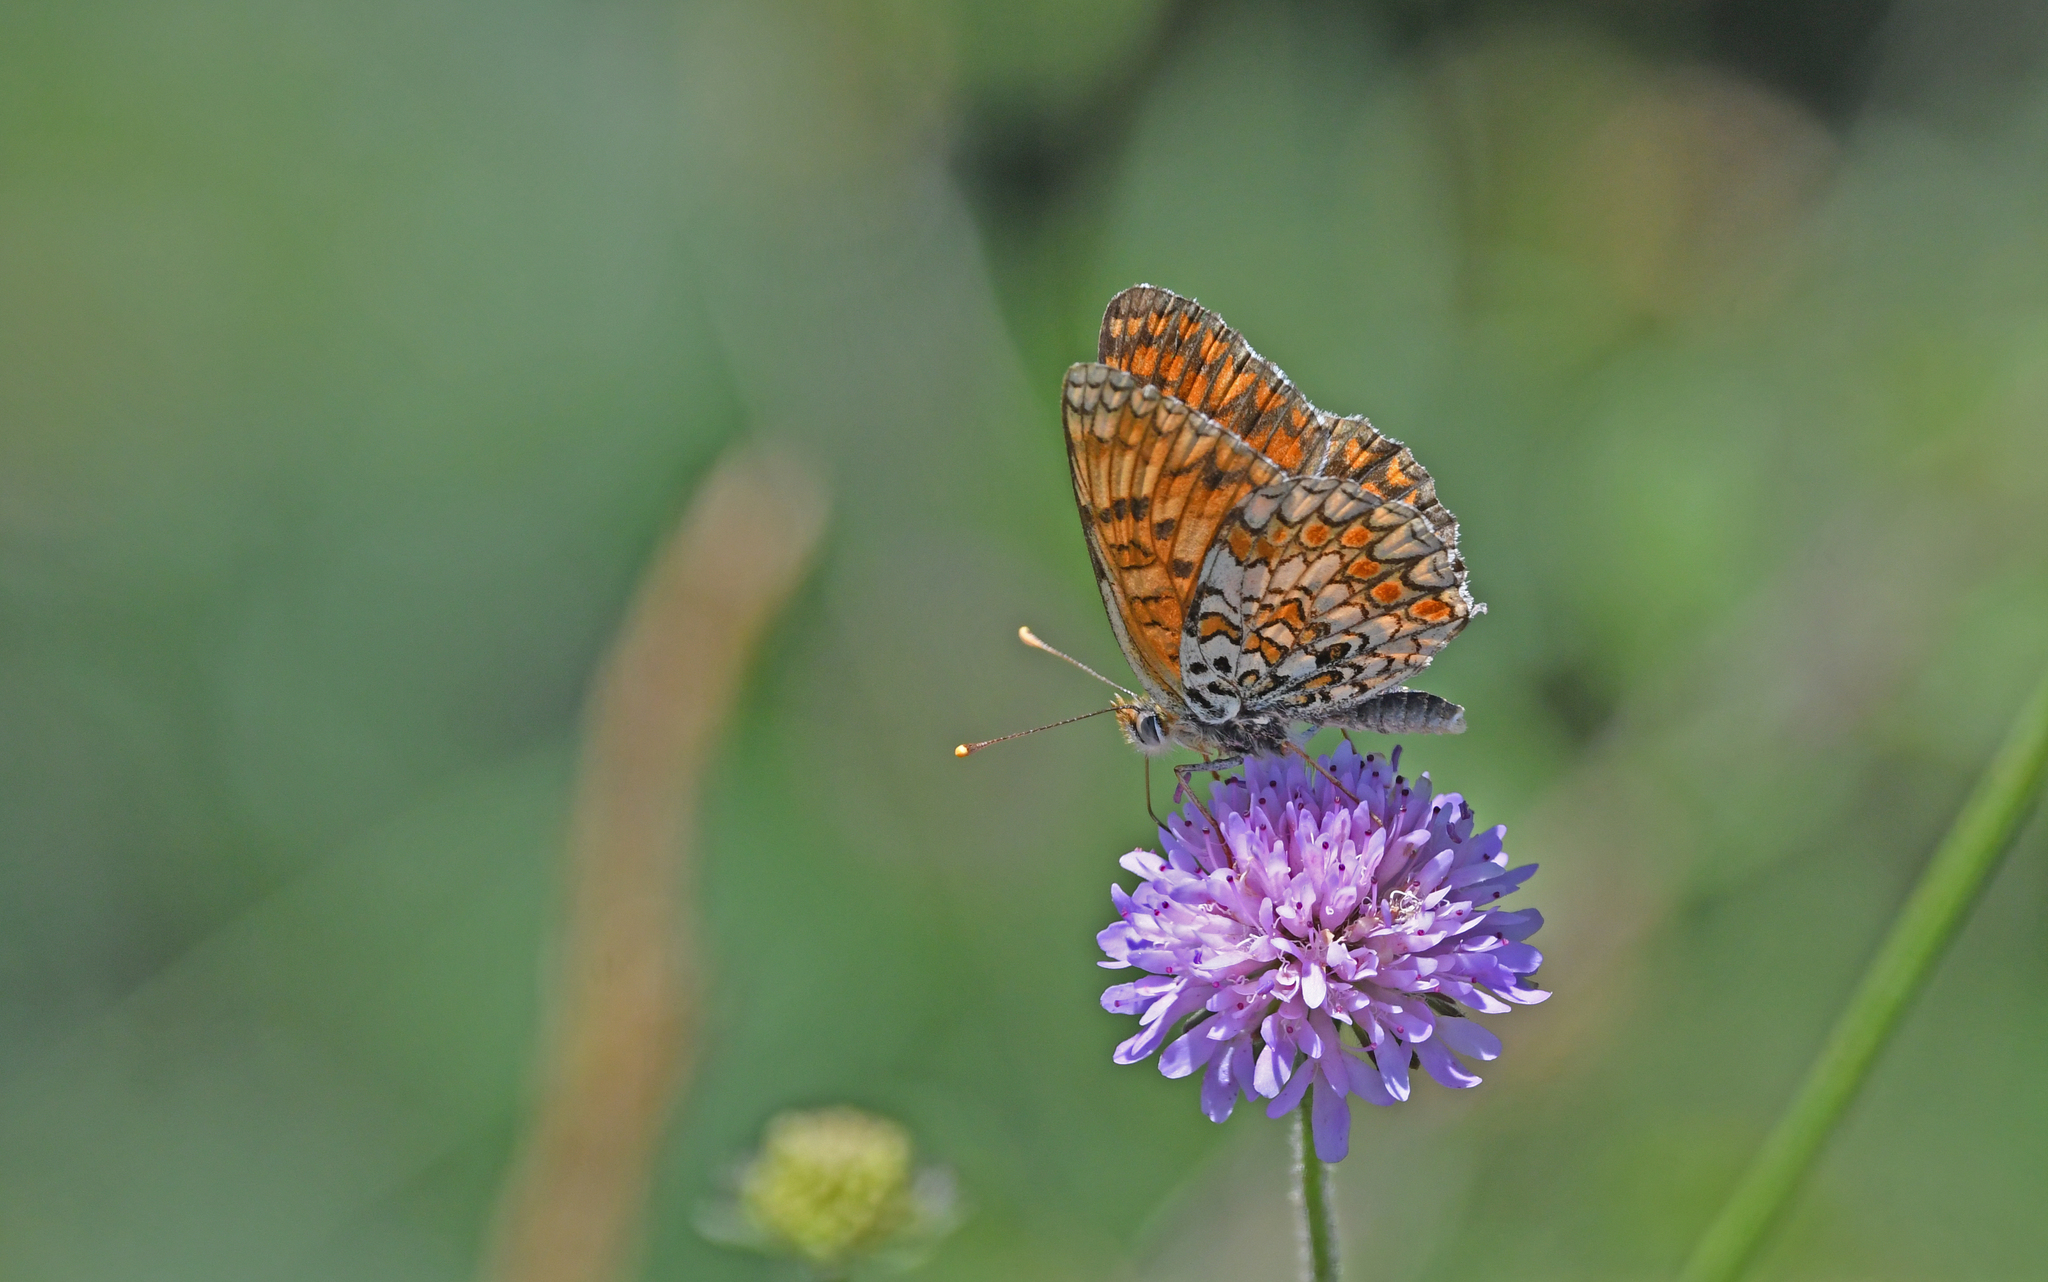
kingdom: Animalia
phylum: Arthropoda
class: Insecta
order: Lepidoptera
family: Nymphalidae
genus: Melitaea
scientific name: Melitaea phoebe
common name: Knapweed fritillary
